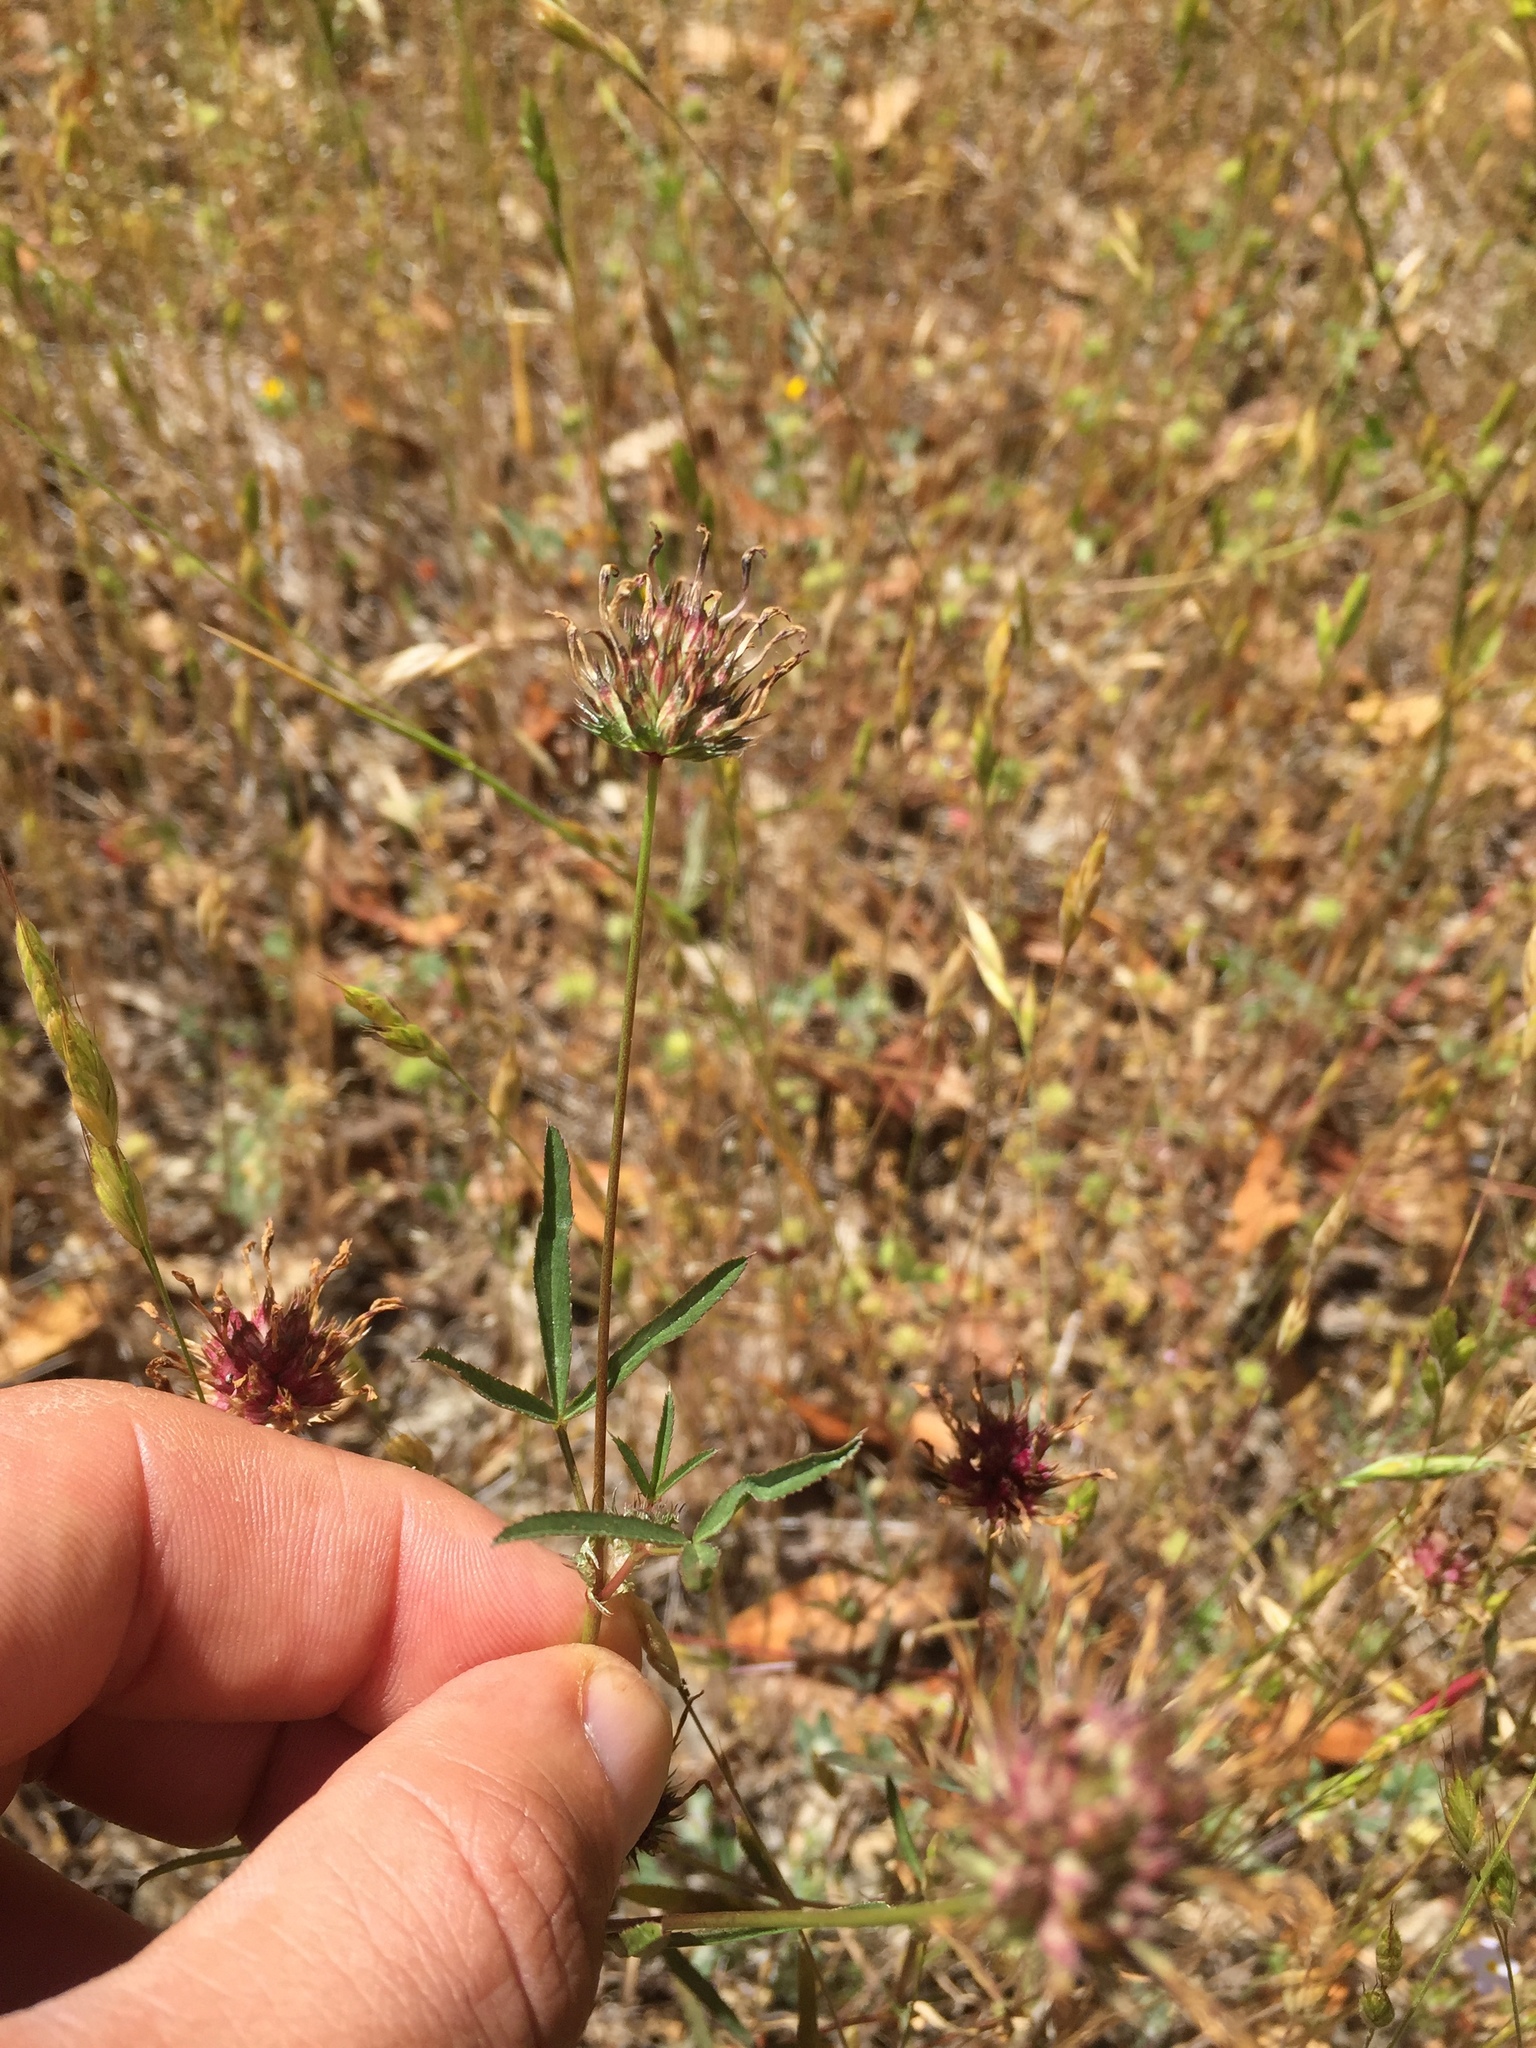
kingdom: Plantae
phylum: Tracheophyta
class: Magnoliopsida
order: Fabales
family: Fabaceae
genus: Trifolium
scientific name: Trifolium willdenovii
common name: Tomcat clover
